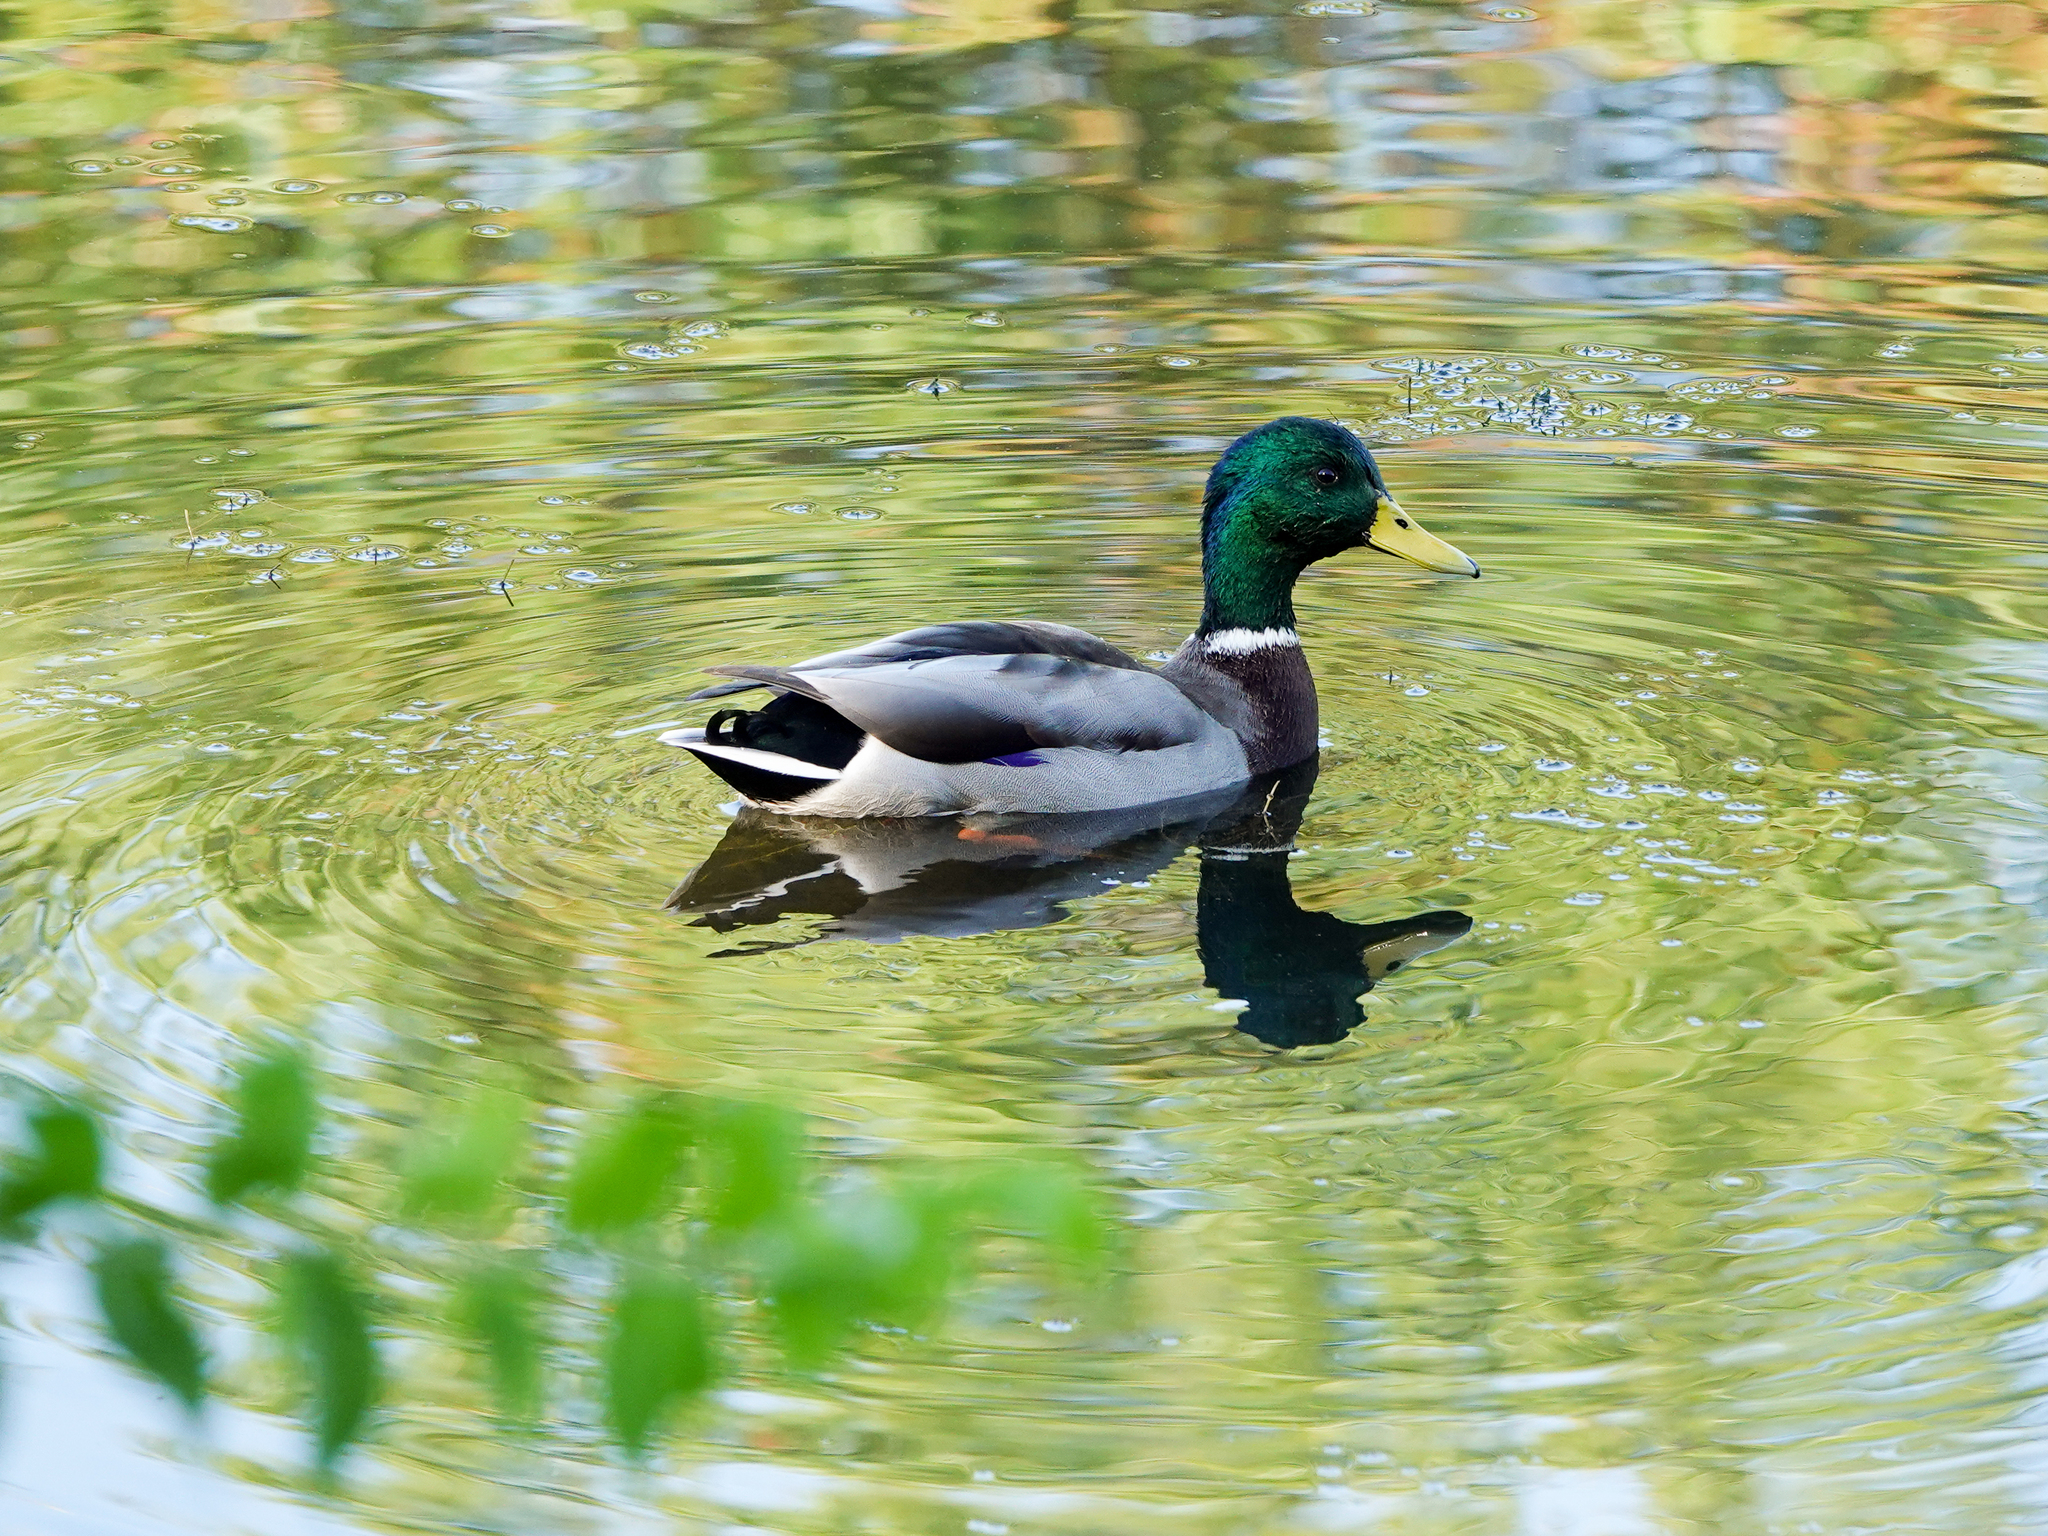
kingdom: Animalia
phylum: Chordata
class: Aves
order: Anseriformes
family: Anatidae
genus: Anas
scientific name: Anas platyrhynchos
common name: Mallard
